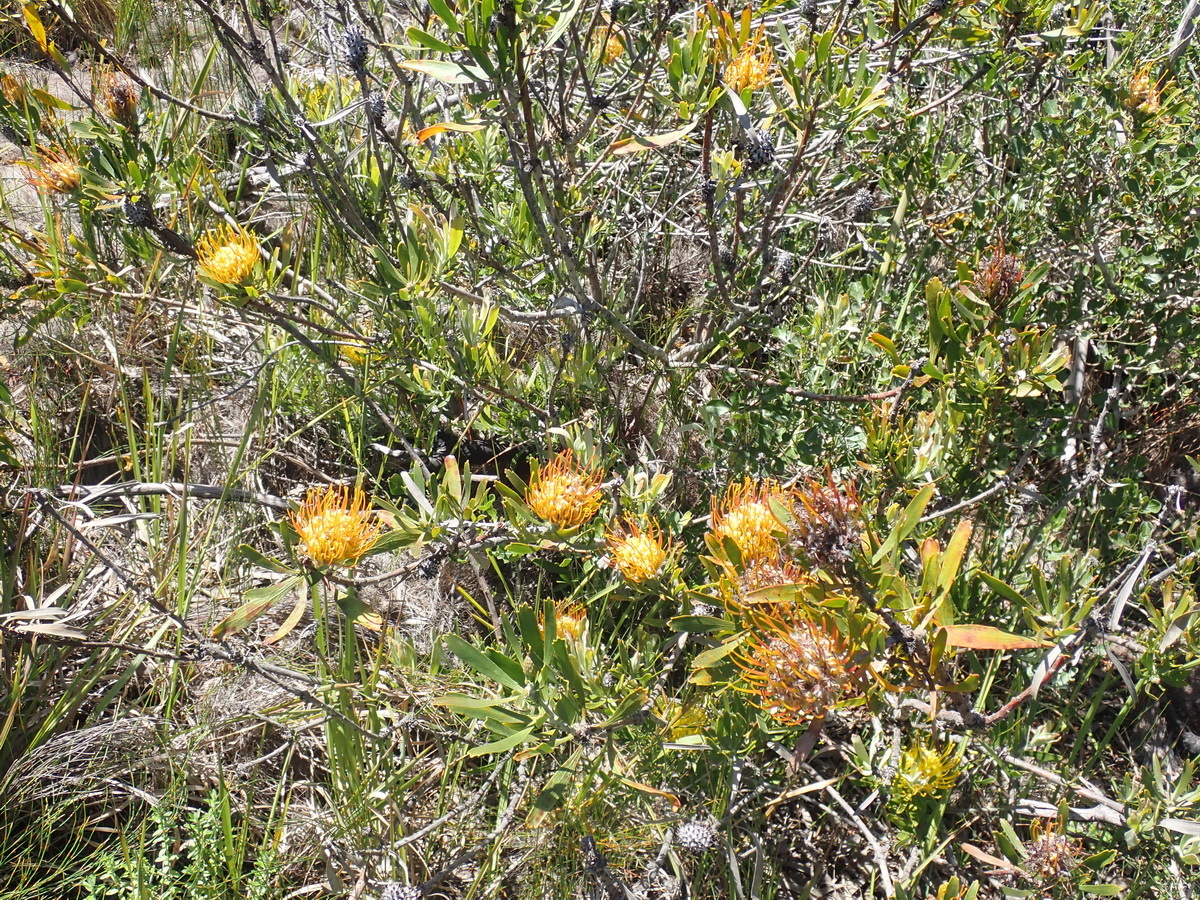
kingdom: Plantae
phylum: Tracheophyta
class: Magnoliopsida
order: Proteales
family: Proteaceae
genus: Leucospermum
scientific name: Leucospermum cuneiforme
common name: Common pincushion
